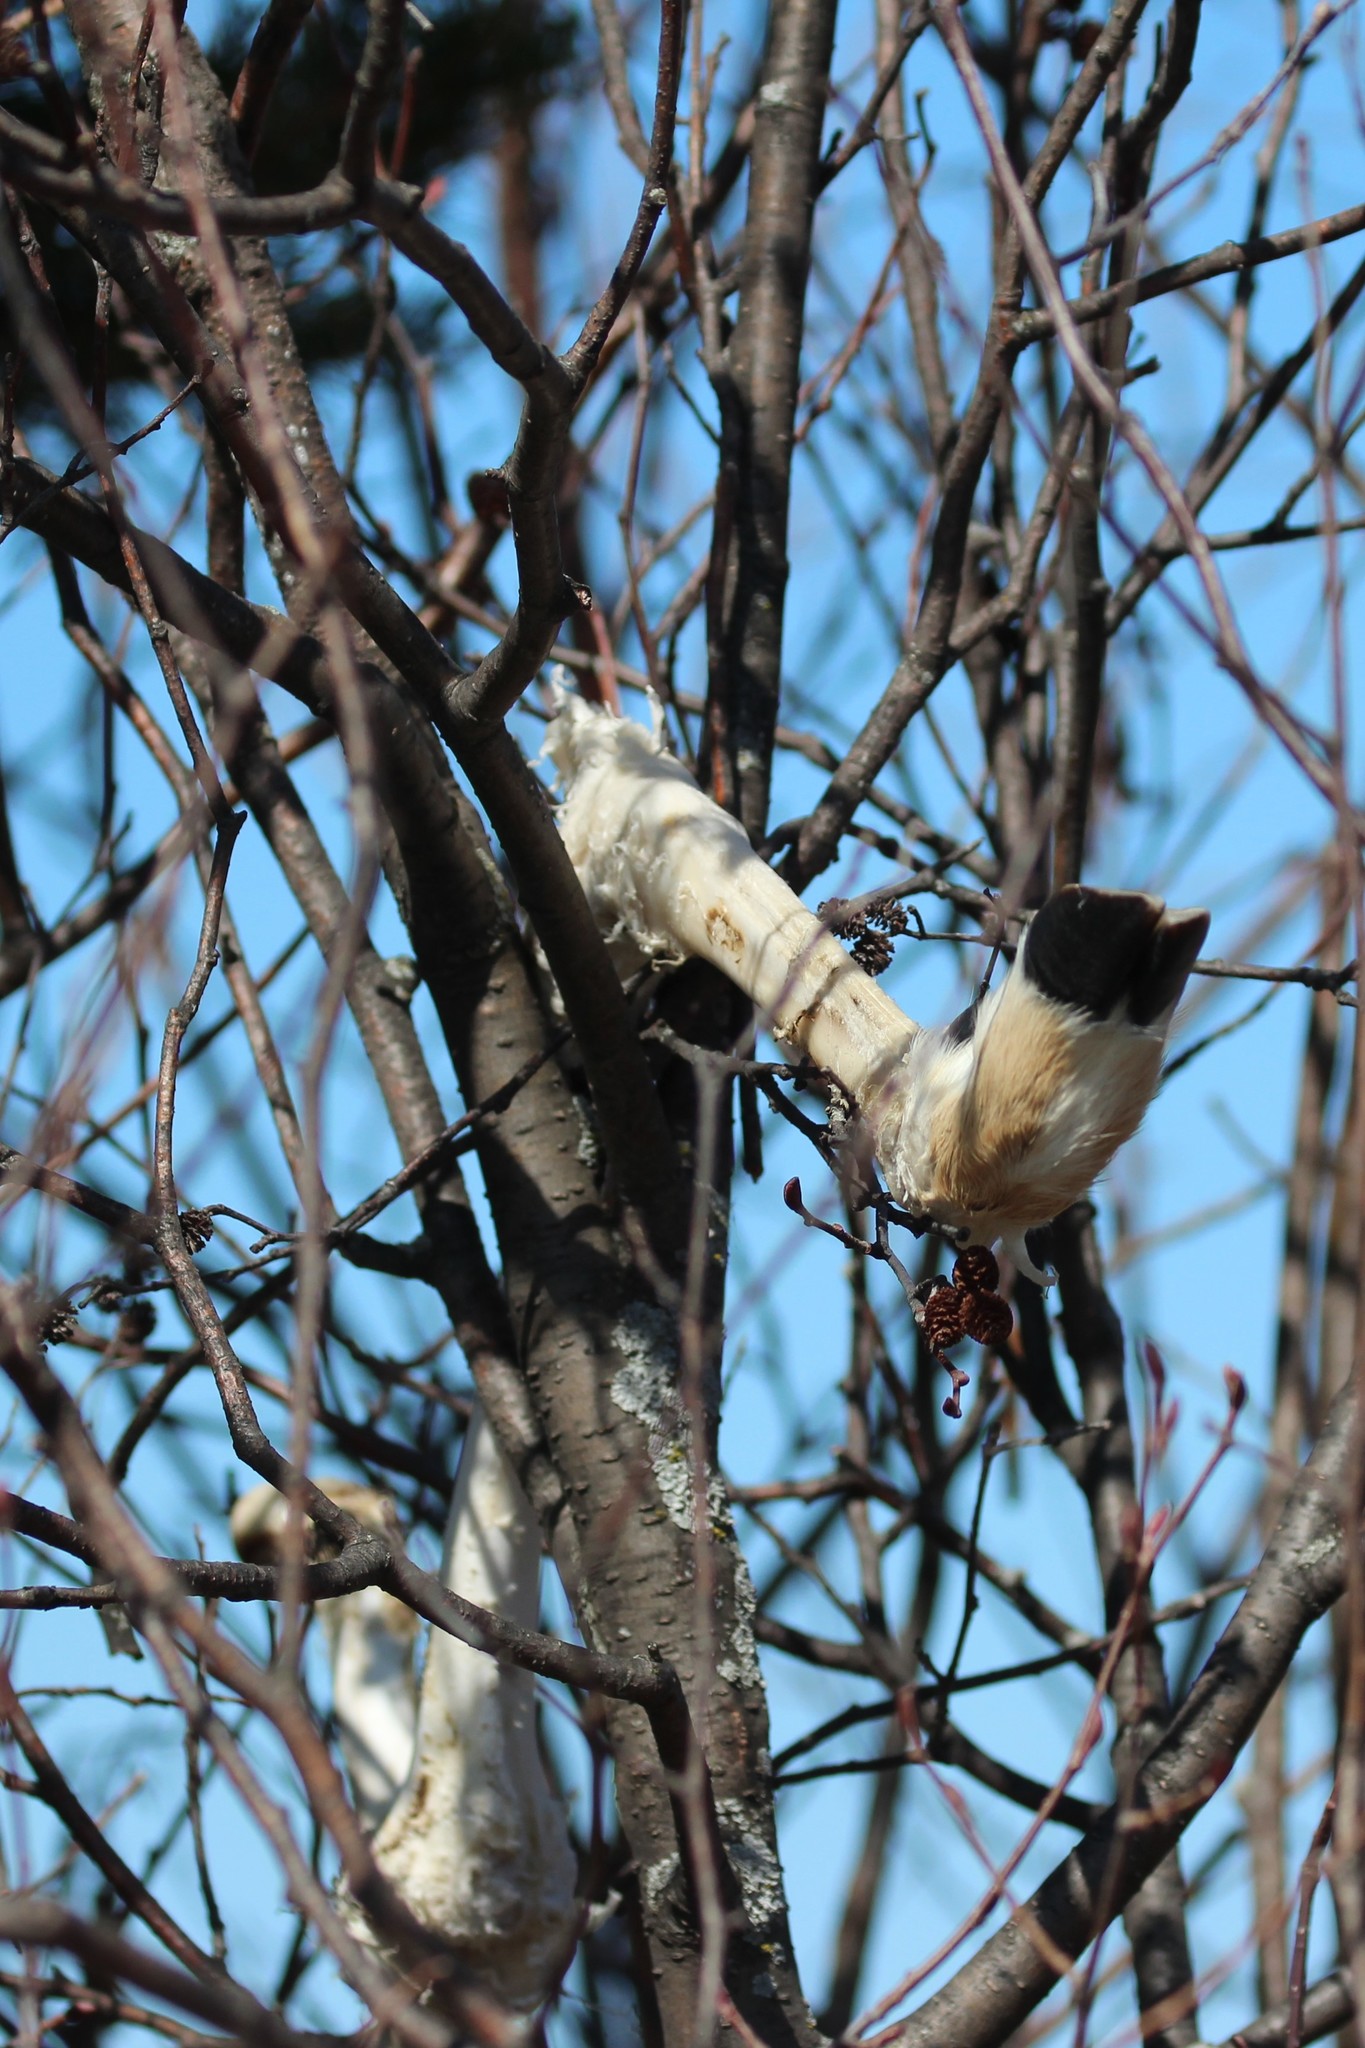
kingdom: Animalia
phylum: Chordata
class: Mammalia
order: Artiodactyla
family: Cervidae
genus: Odocoileus
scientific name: Odocoileus virginianus
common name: White-tailed deer
